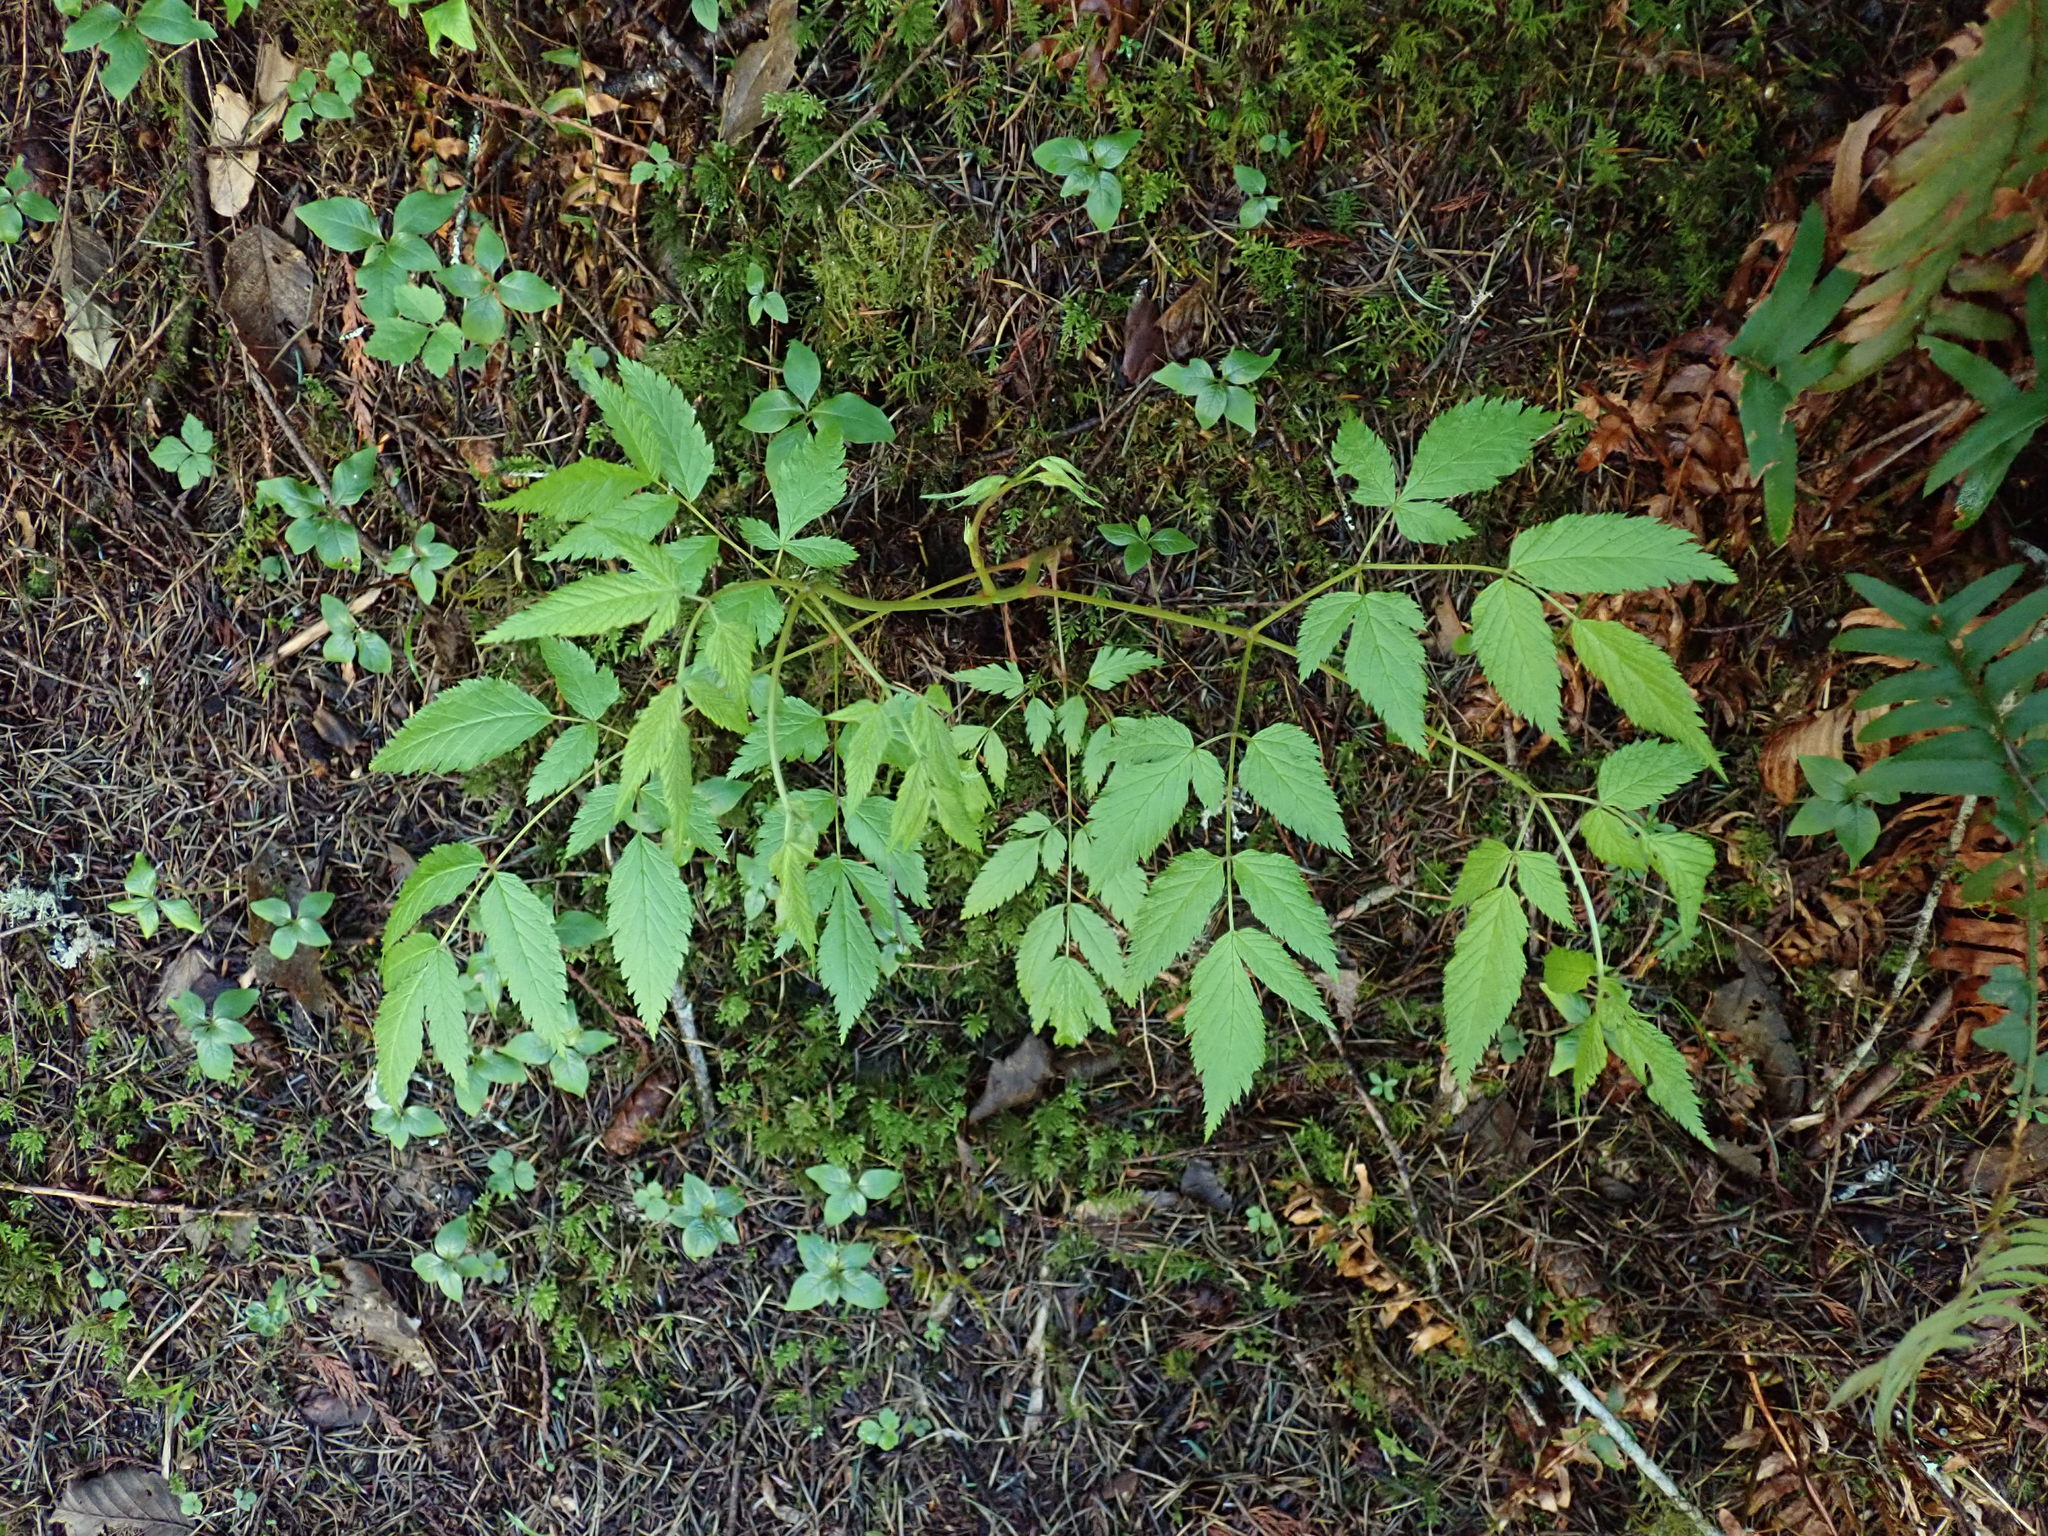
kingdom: Plantae
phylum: Tracheophyta
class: Magnoliopsida
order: Rosales
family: Rosaceae
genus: Aruncus
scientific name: Aruncus dioicus
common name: Buck's-beard
